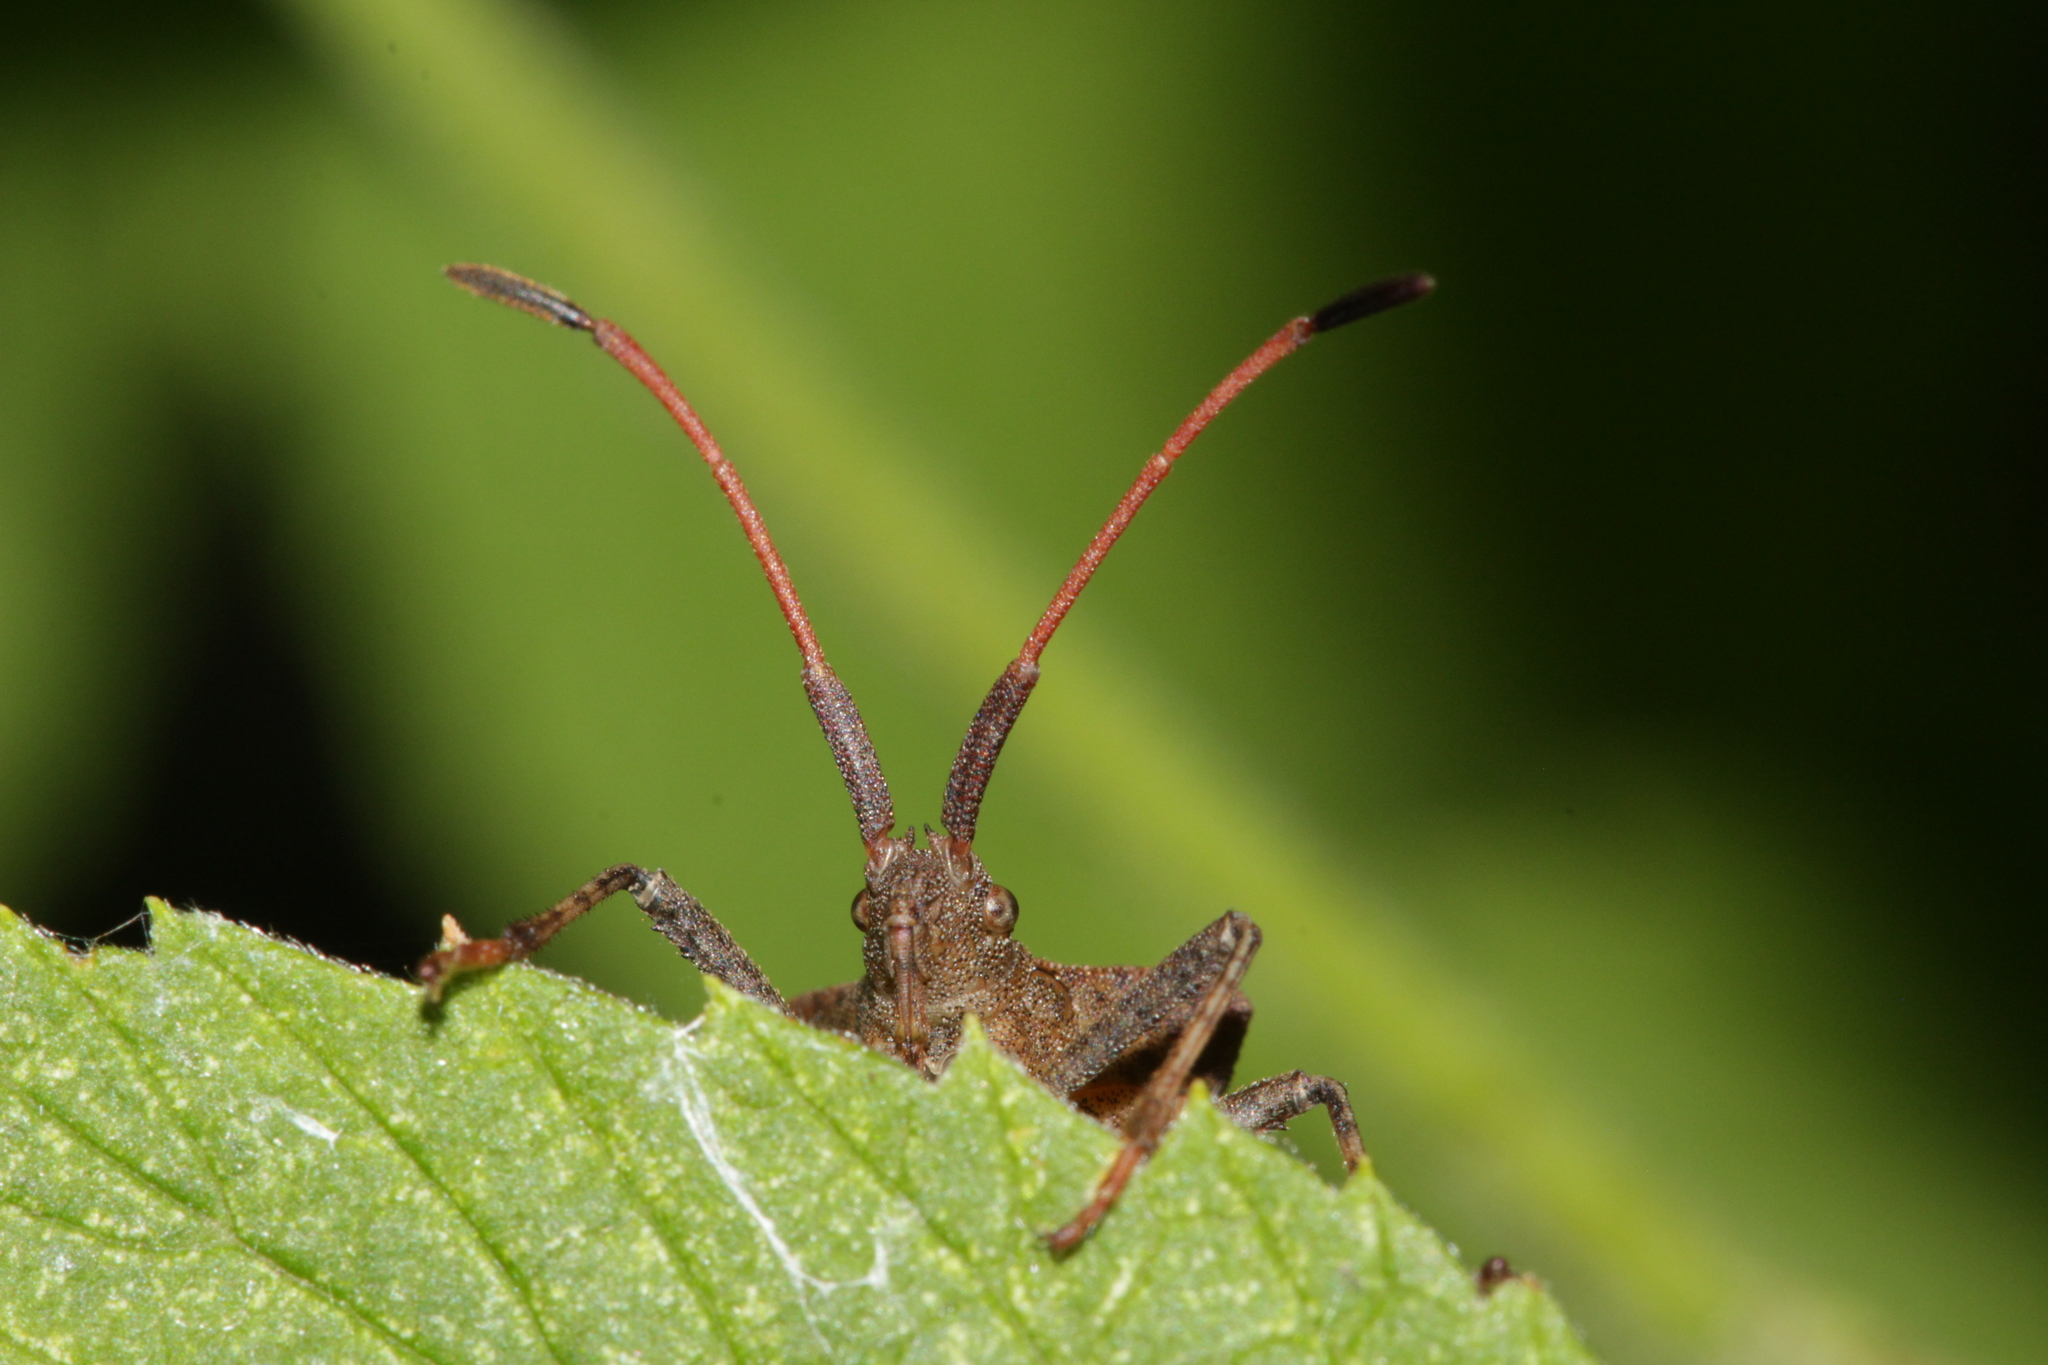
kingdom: Animalia
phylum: Arthropoda
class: Insecta
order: Hemiptera
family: Coreidae
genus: Coreus
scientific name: Coreus marginatus
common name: Dock bug
